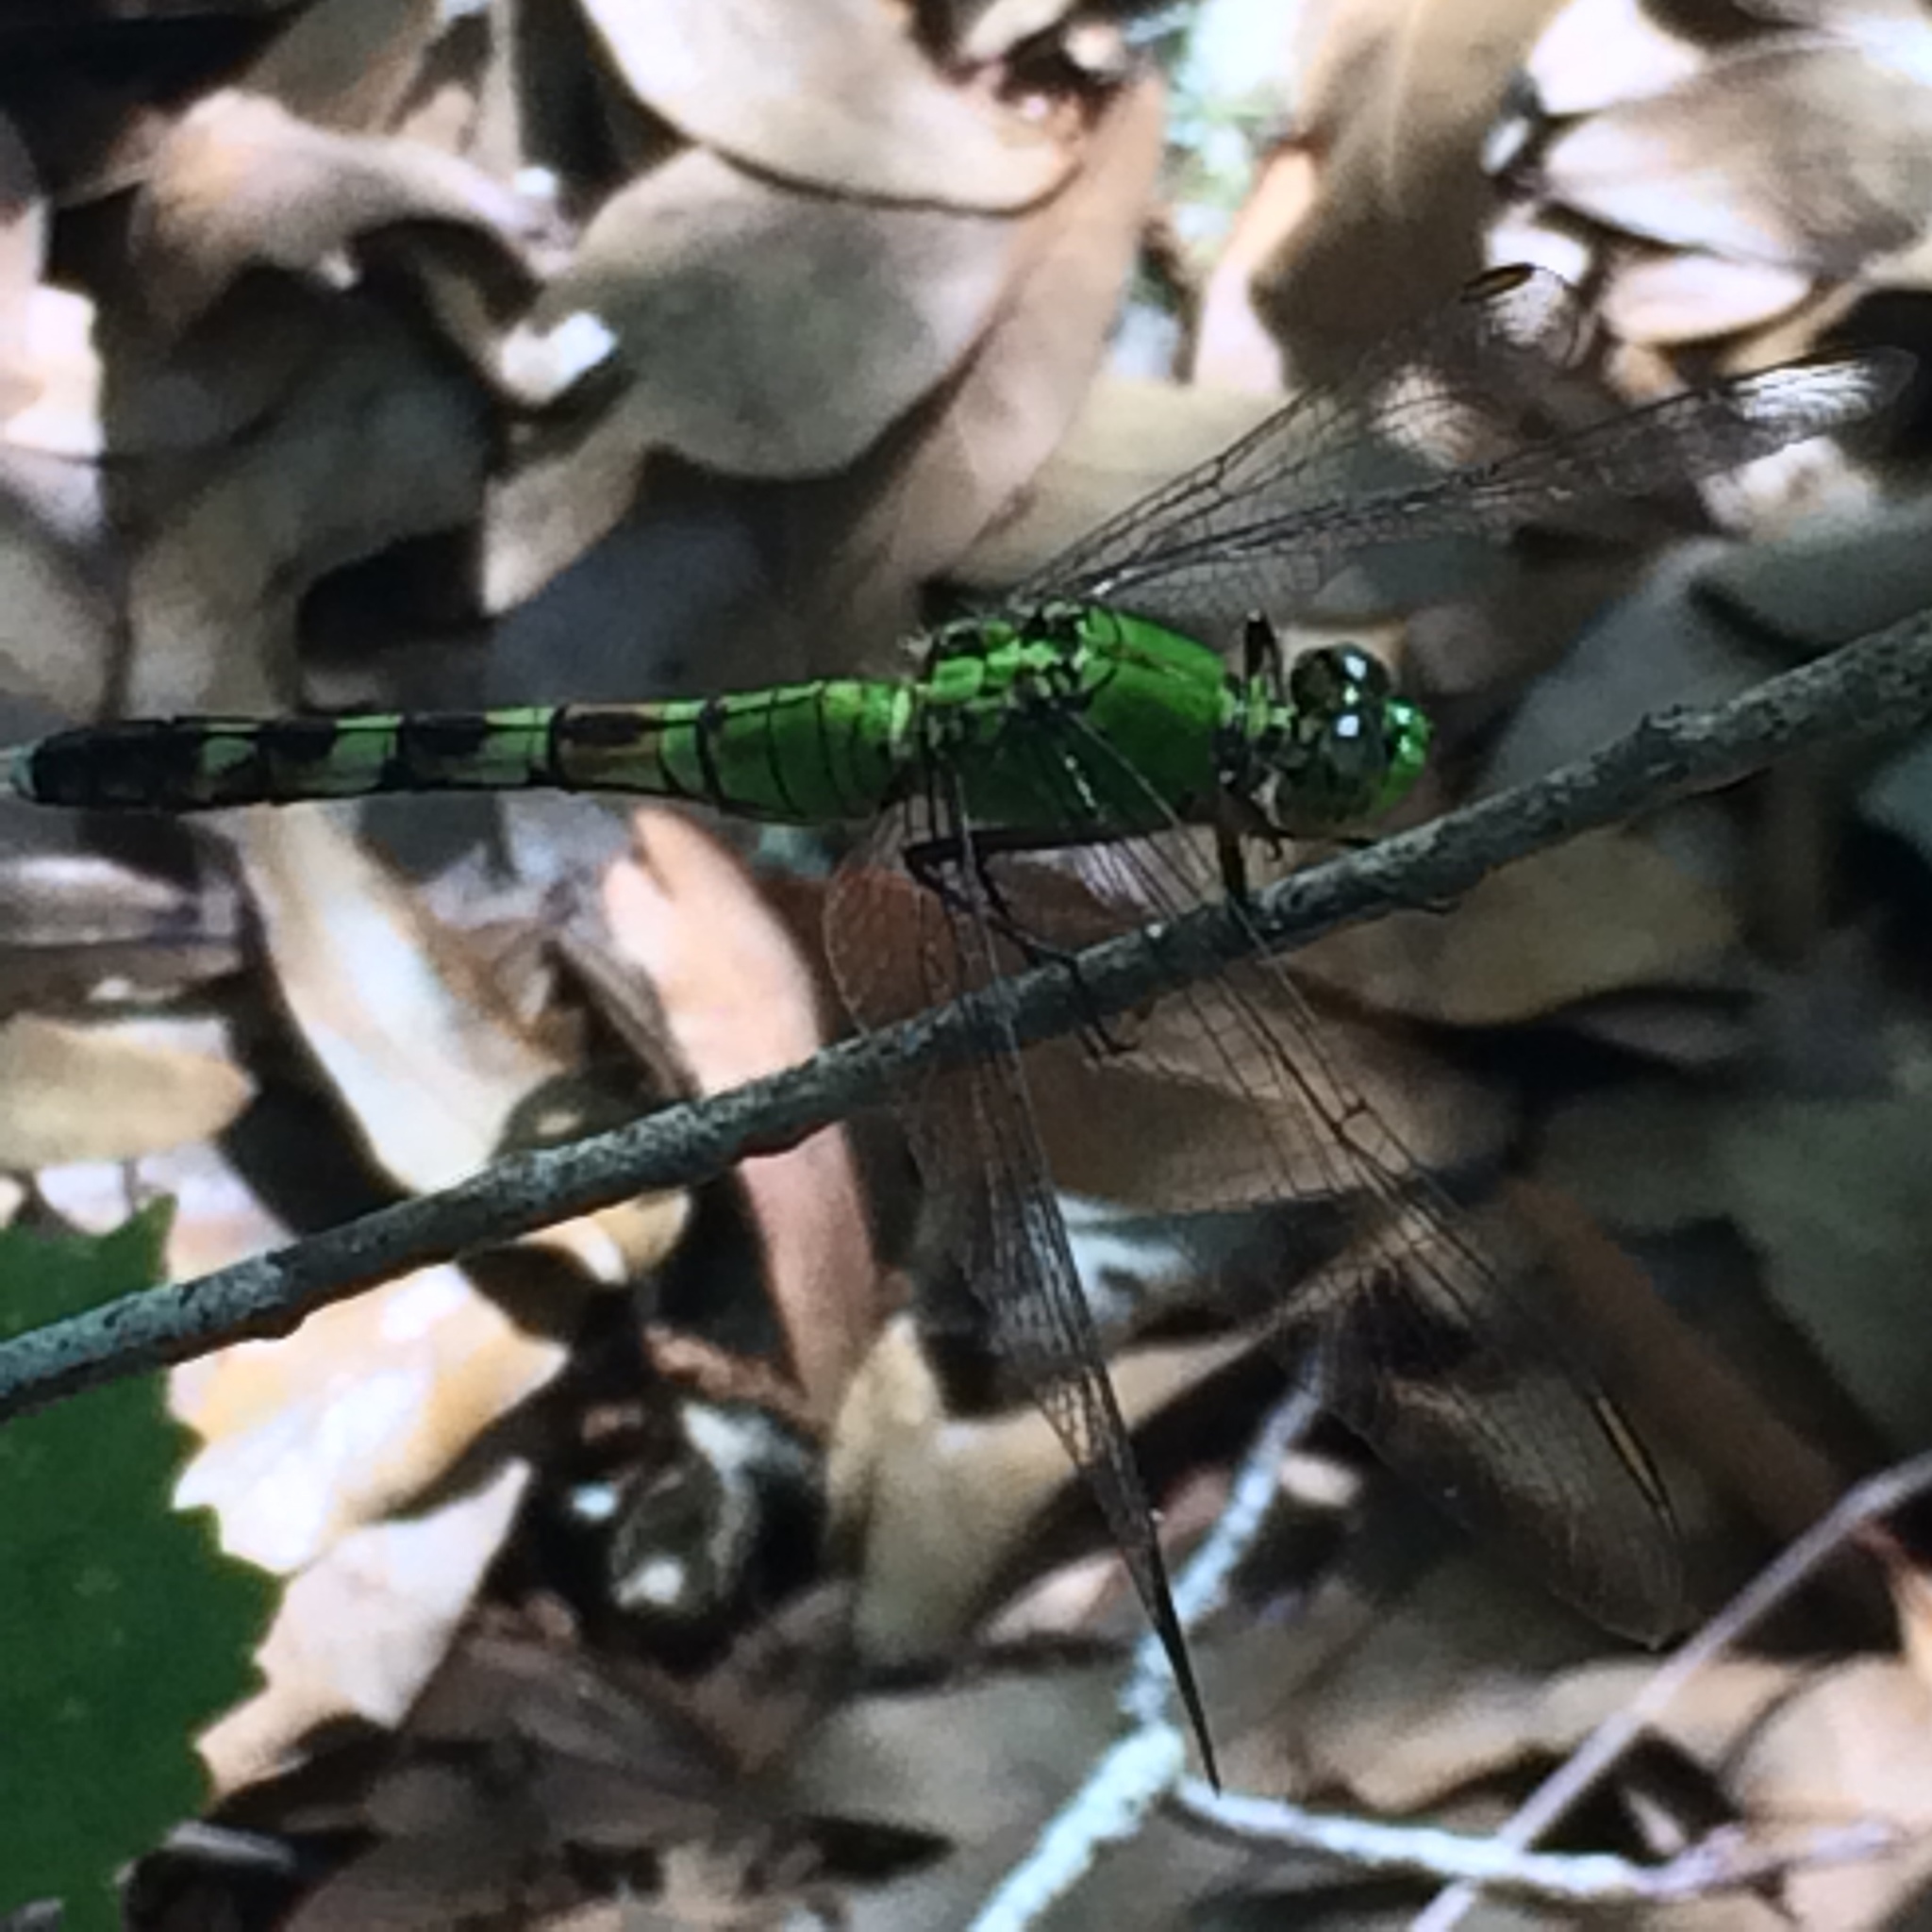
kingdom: Animalia
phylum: Arthropoda
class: Insecta
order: Odonata
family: Libellulidae
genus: Erythemis
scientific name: Erythemis simplicicollis
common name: Eastern pondhawk
